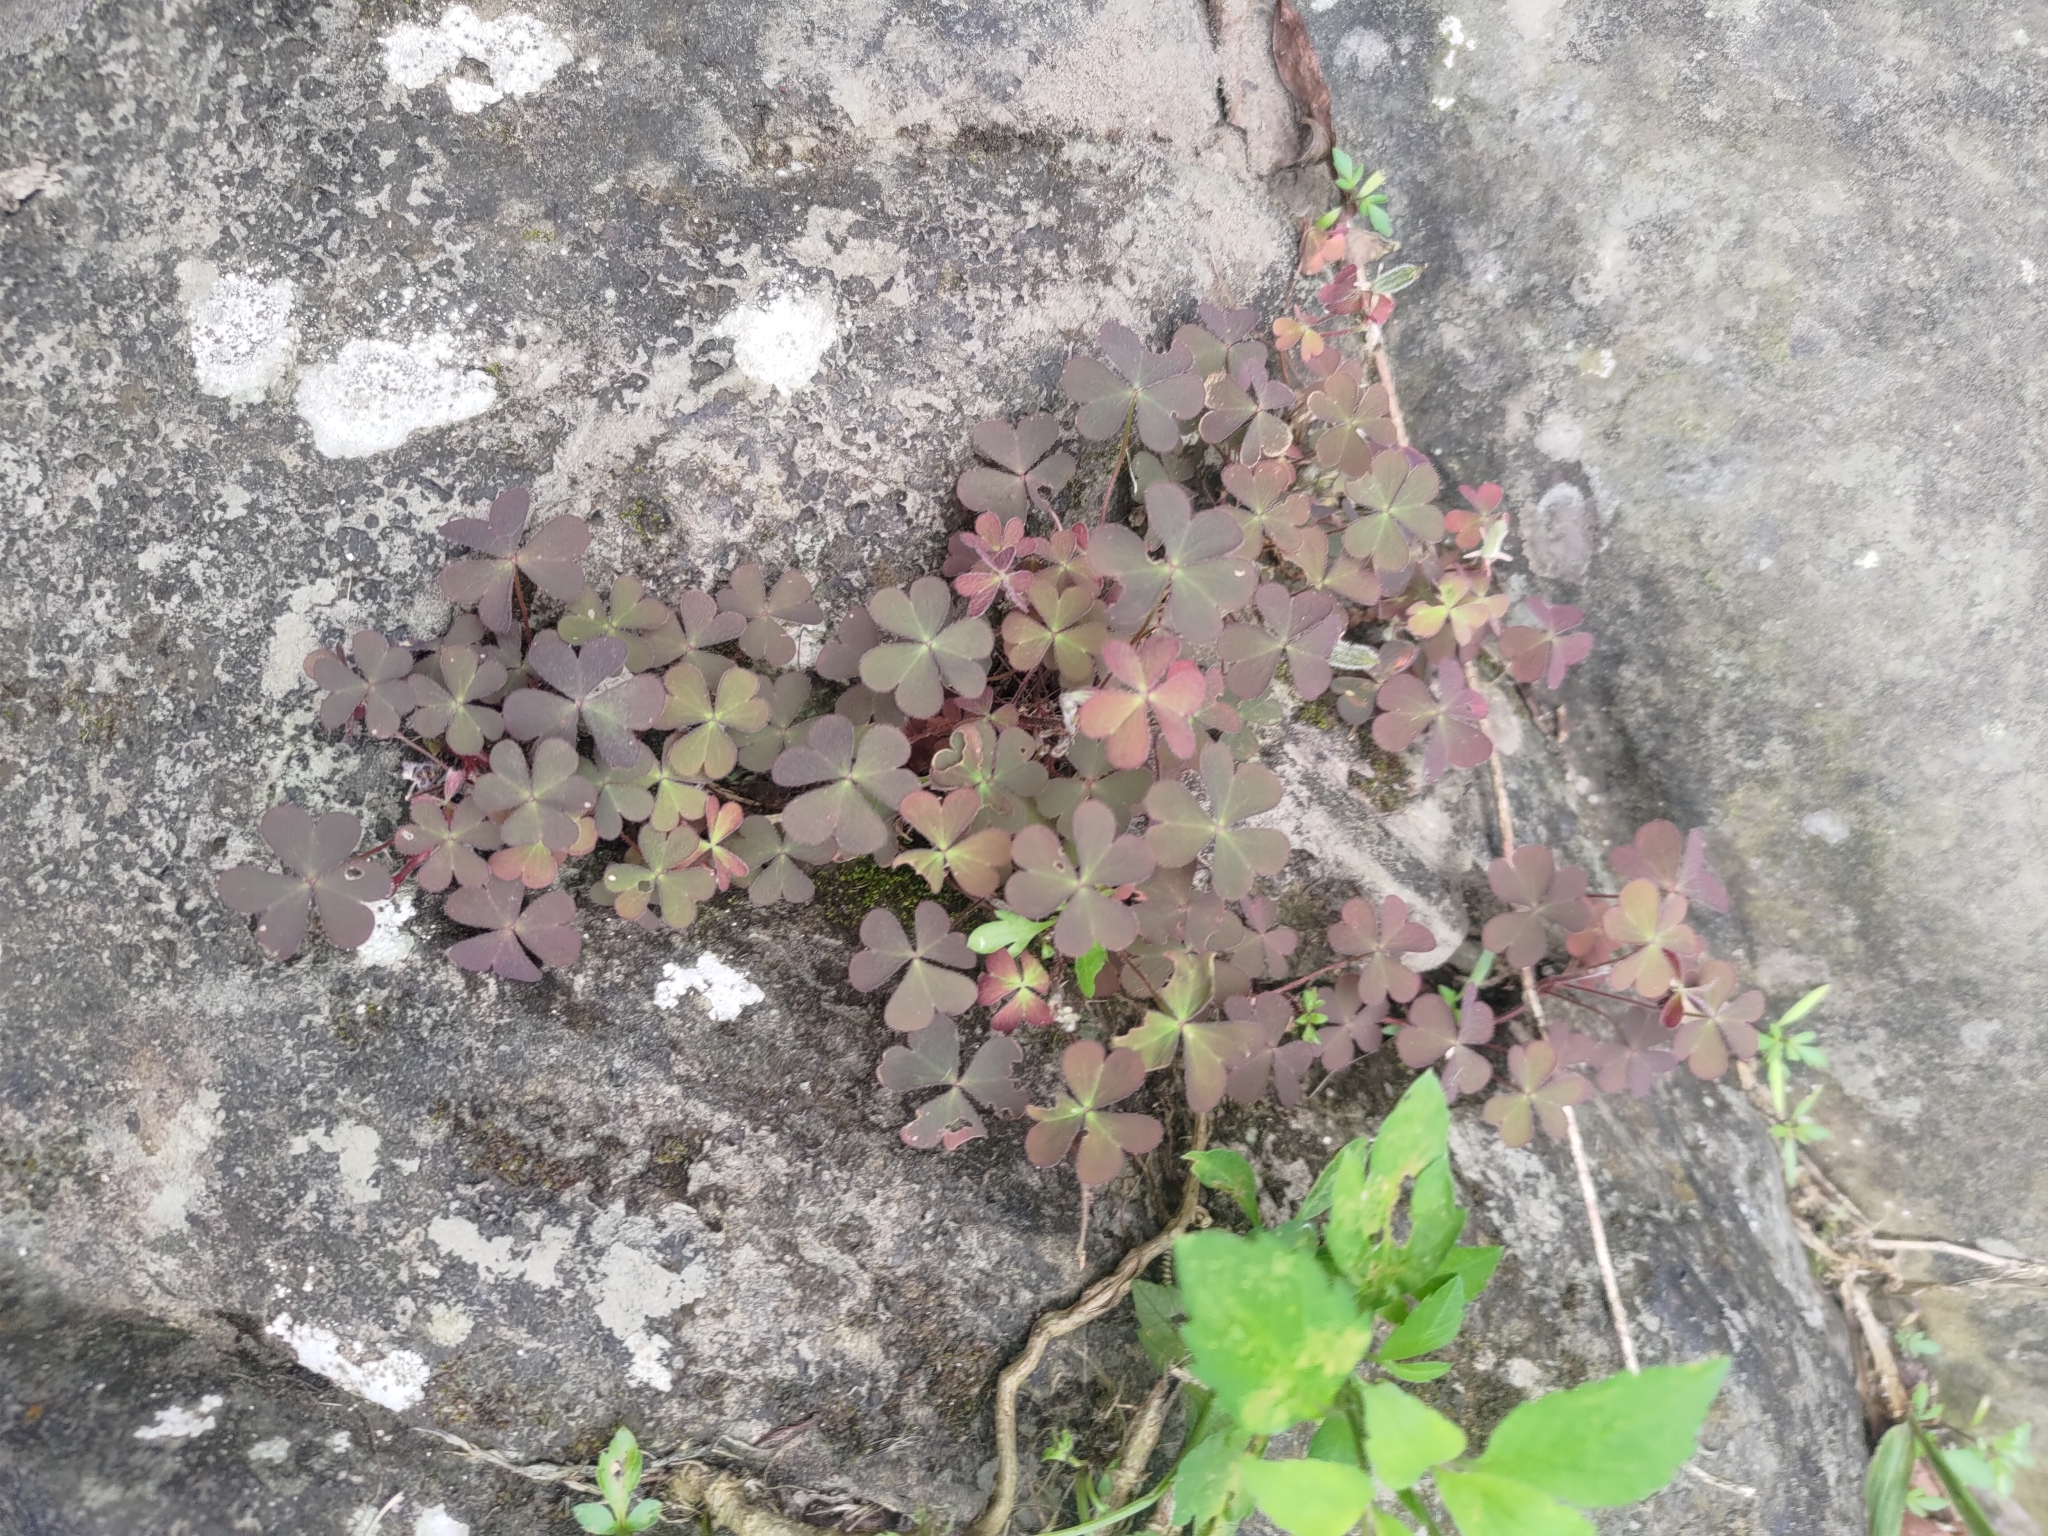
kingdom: Plantae
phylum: Tracheophyta
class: Magnoliopsida
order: Oxalidales
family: Oxalidaceae
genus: Oxalis
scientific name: Oxalis corniculata
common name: Procumbent yellow-sorrel
